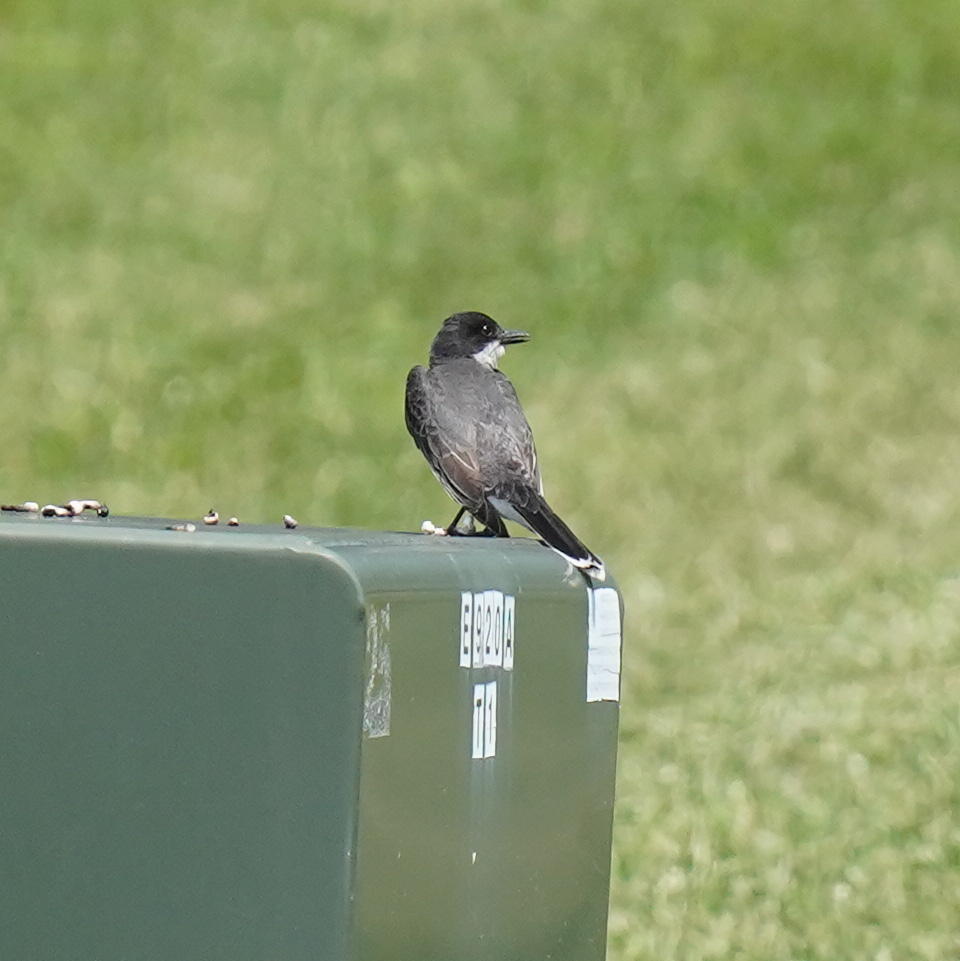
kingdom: Animalia
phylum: Chordata
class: Aves
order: Passeriformes
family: Tyrannidae
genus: Tyrannus
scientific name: Tyrannus tyrannus
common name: Eastern kingbird
